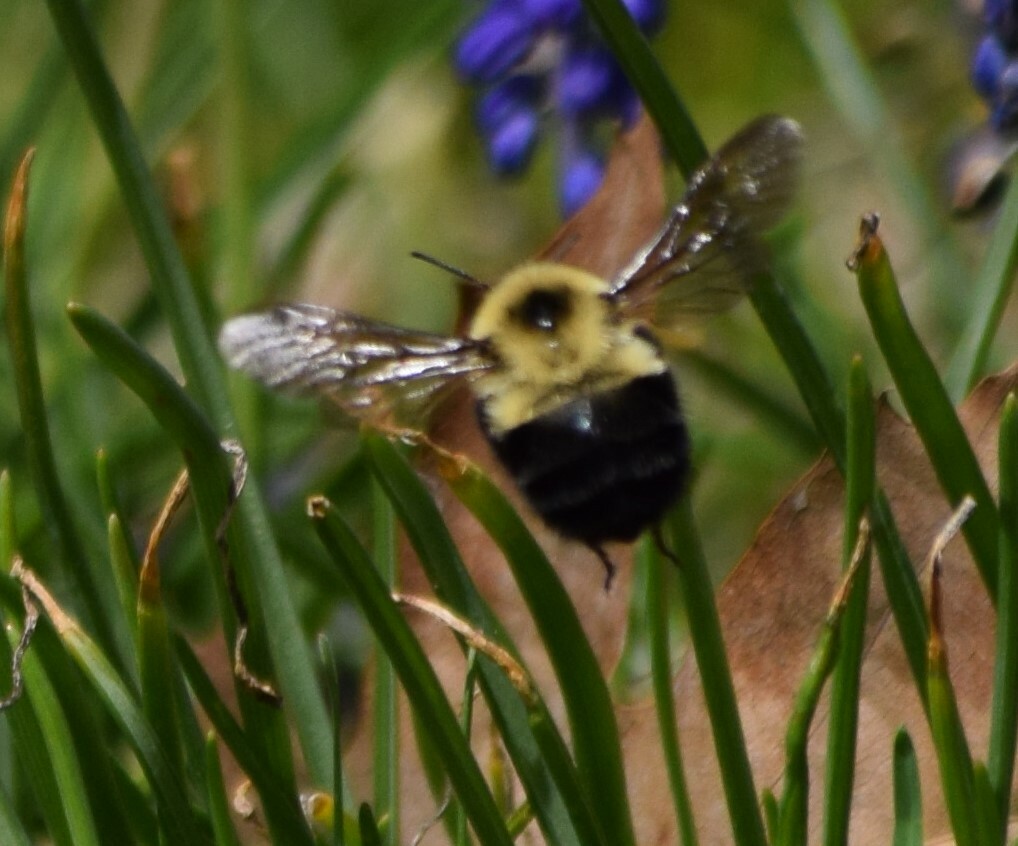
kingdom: Animalia
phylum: Arthropoda
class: Insecta
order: Hymenoptera
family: Apidae
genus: Bombus
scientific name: Bombus bimaculatus
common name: Two-spotted bumble bee
